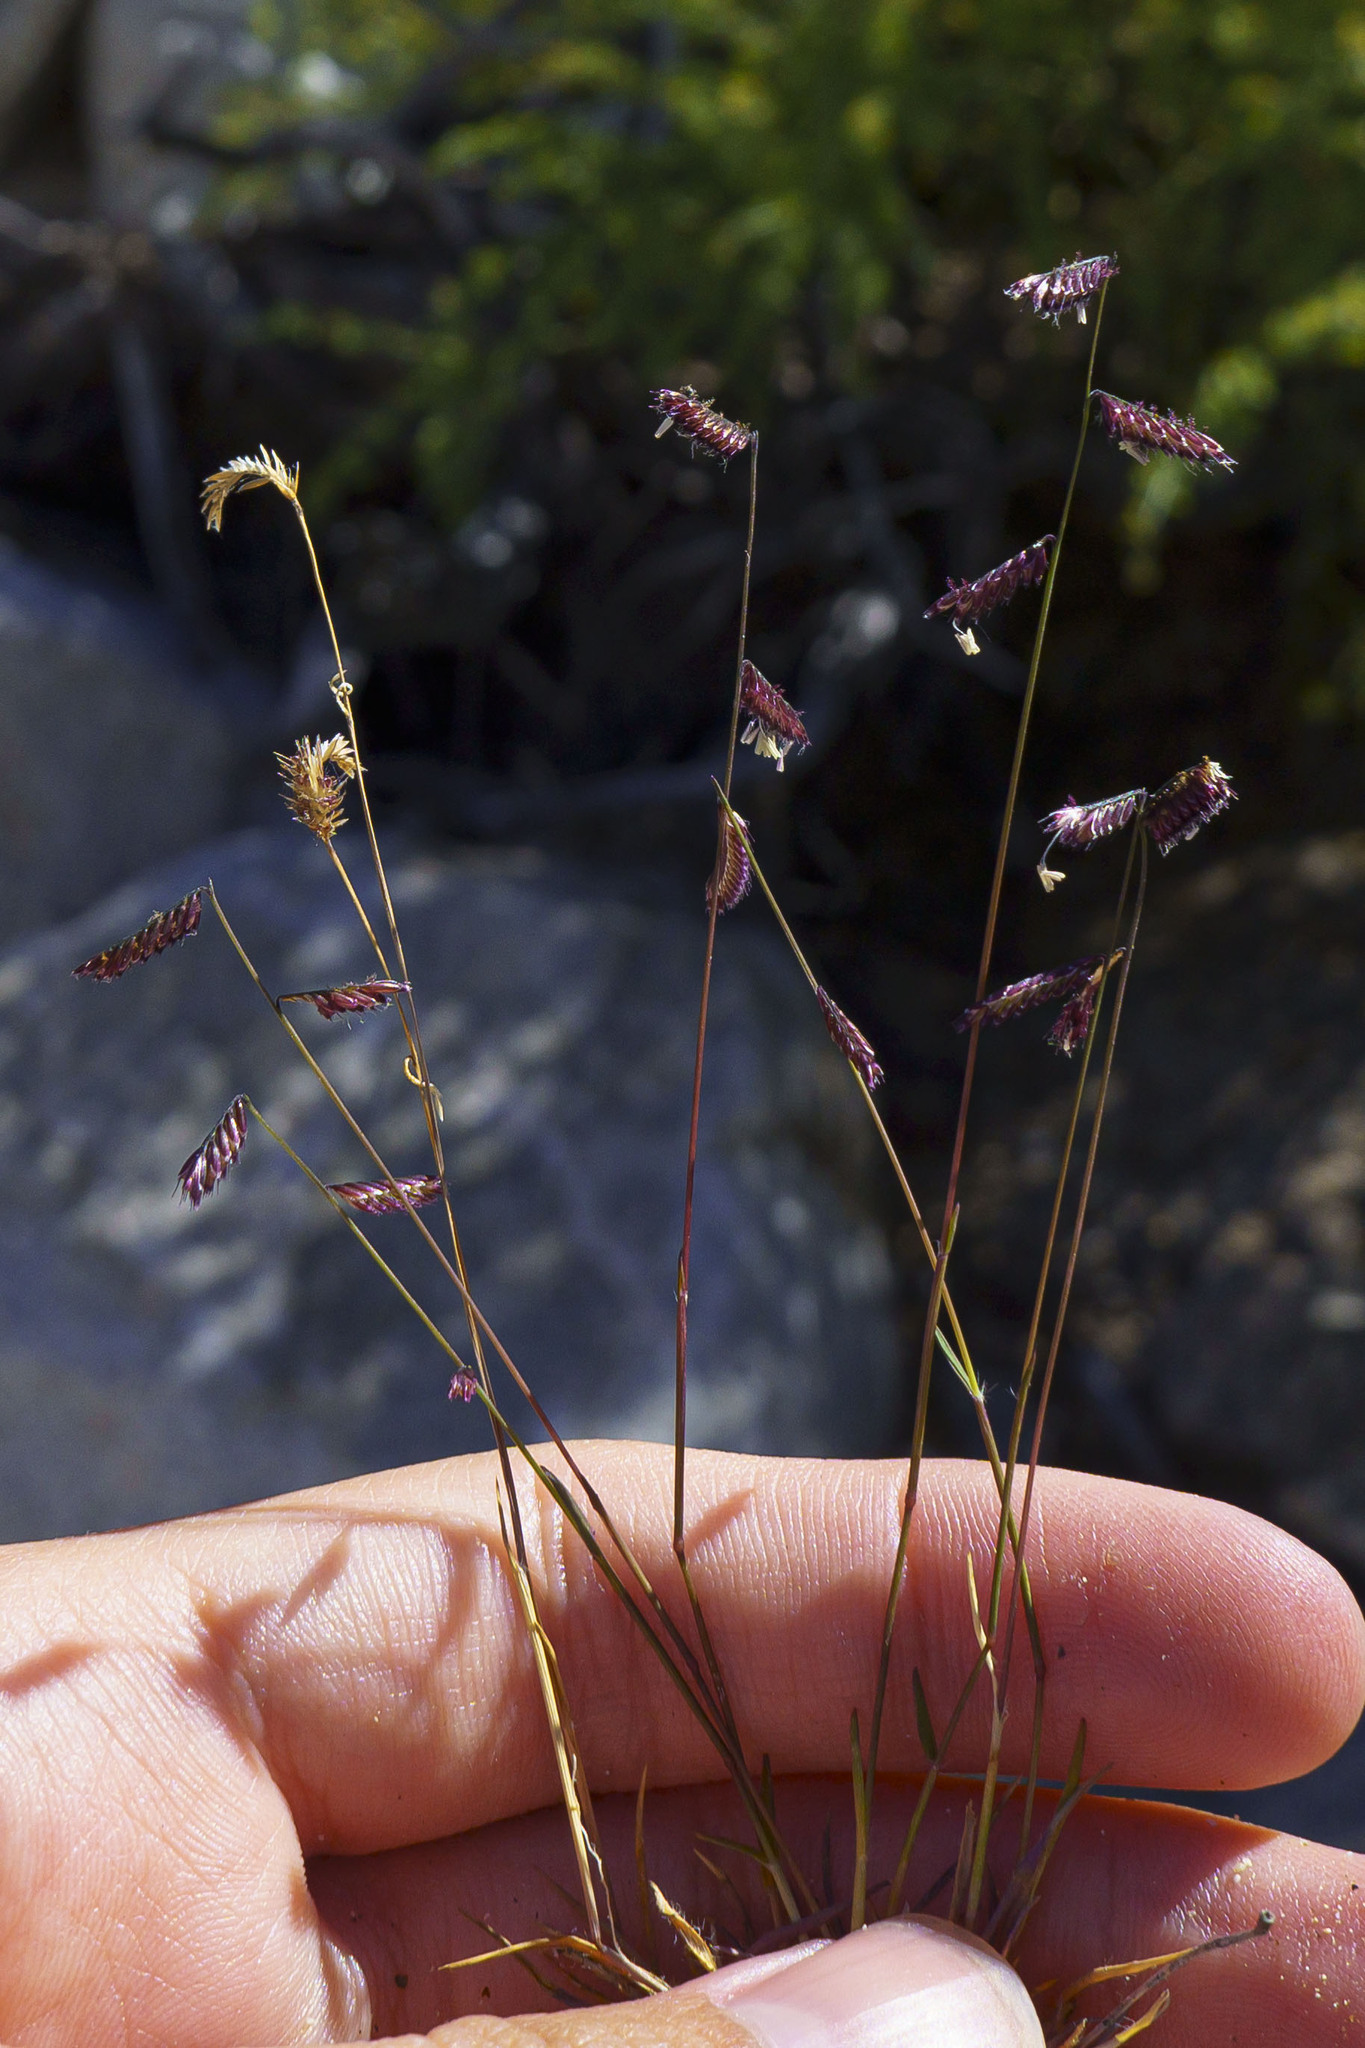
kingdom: Plantae
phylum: Tracheophyta
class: Liliopsida
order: Poales
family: Poaceae
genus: Bouteloua
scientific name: Bouteloua barbata
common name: Six-weeks grama
